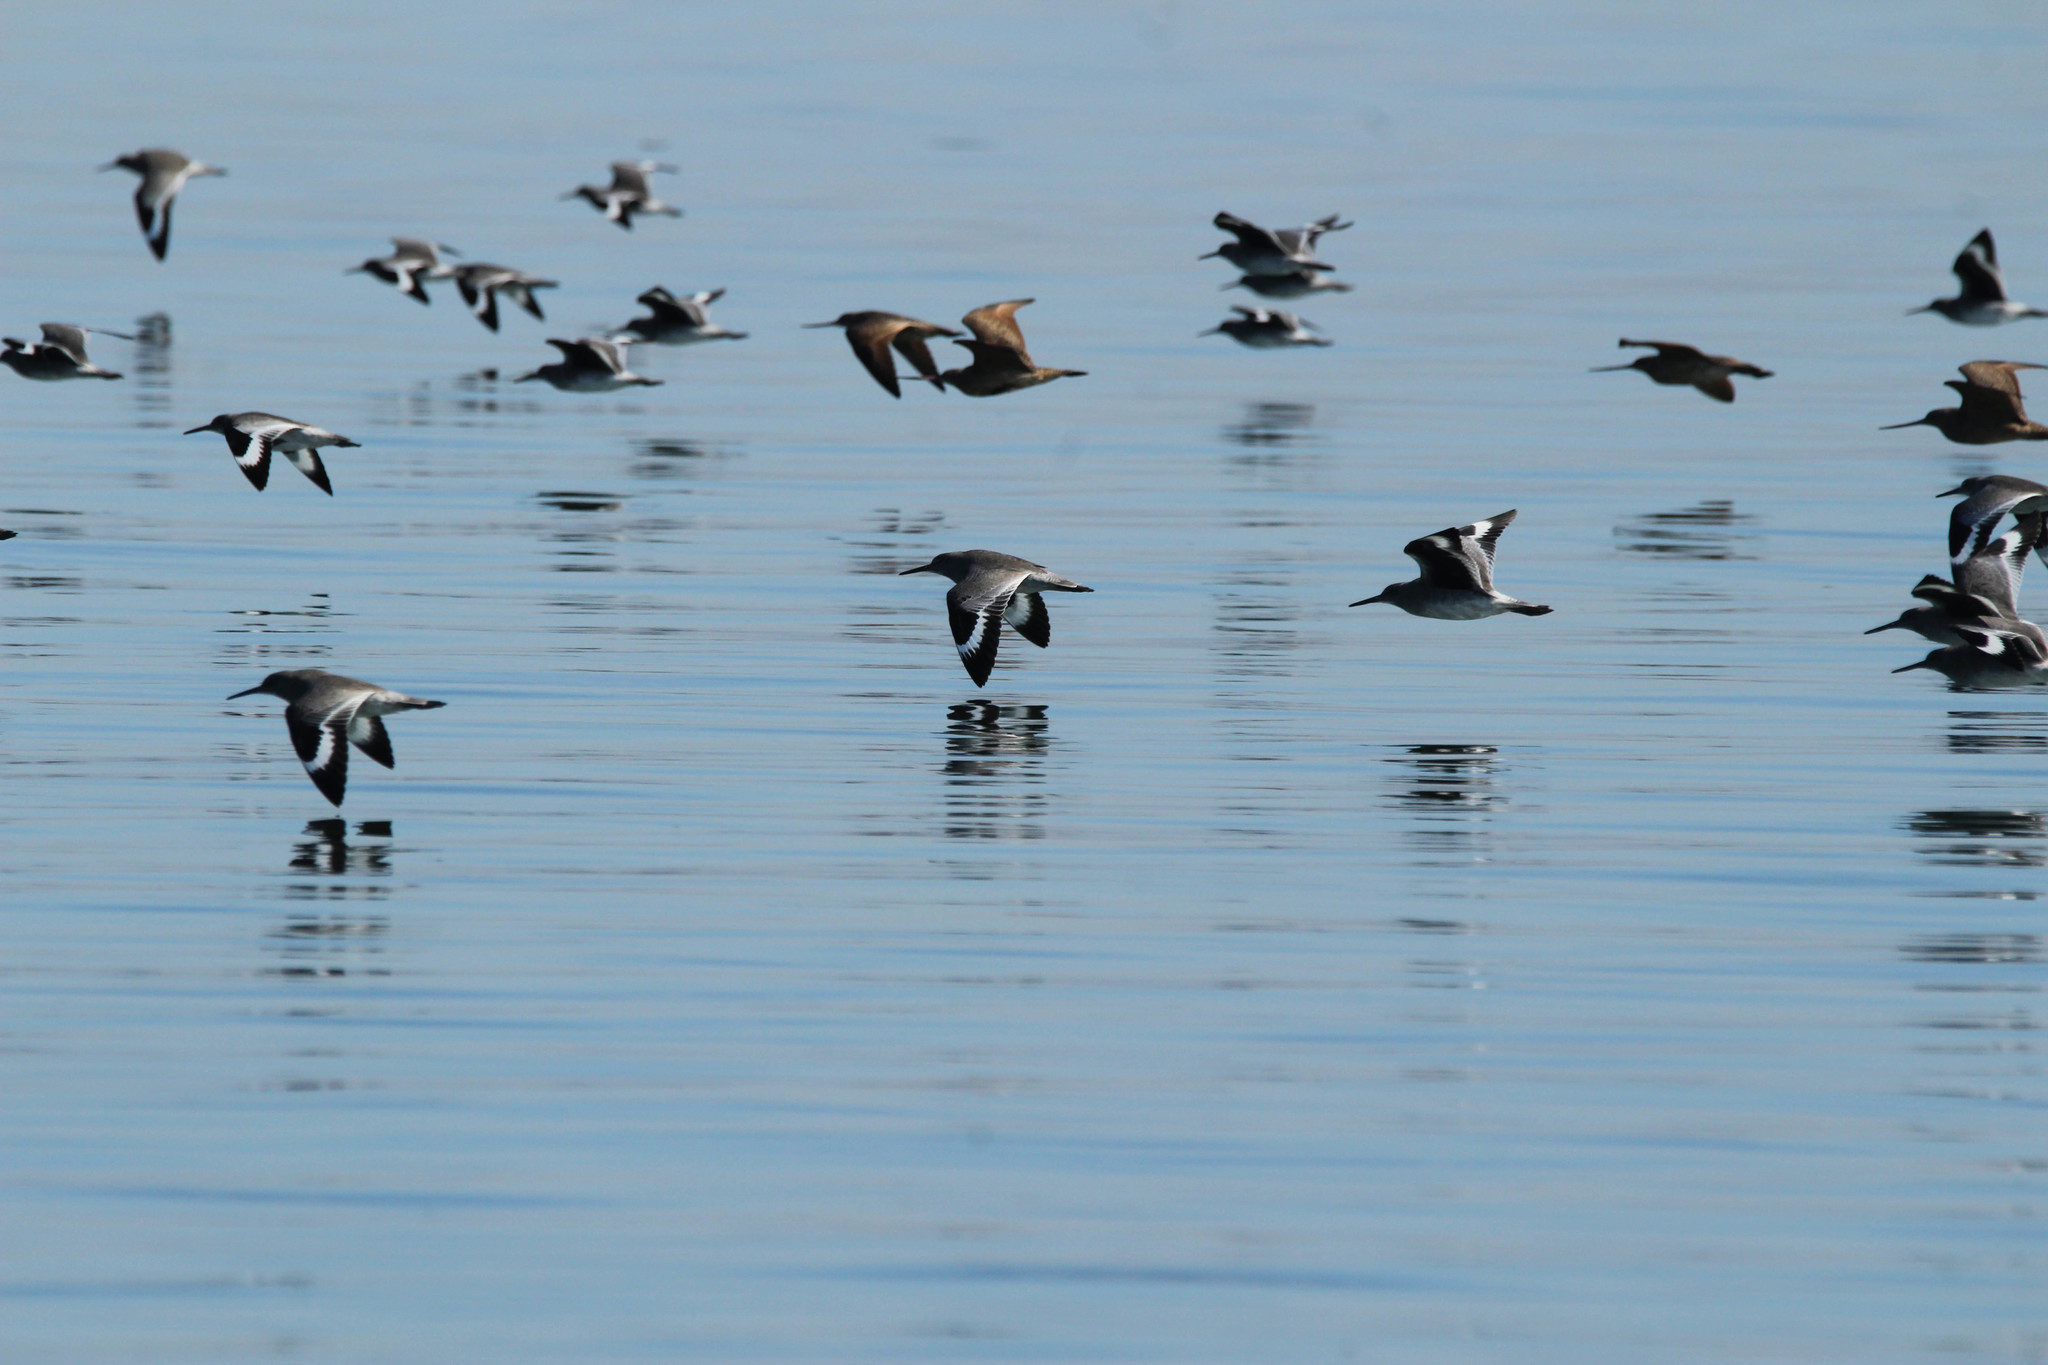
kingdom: Animalia
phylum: Chordata
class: Aves
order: Charadriiformes
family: Scolopacidae
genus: Tringa
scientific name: Tringa semipalmata
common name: Willet
